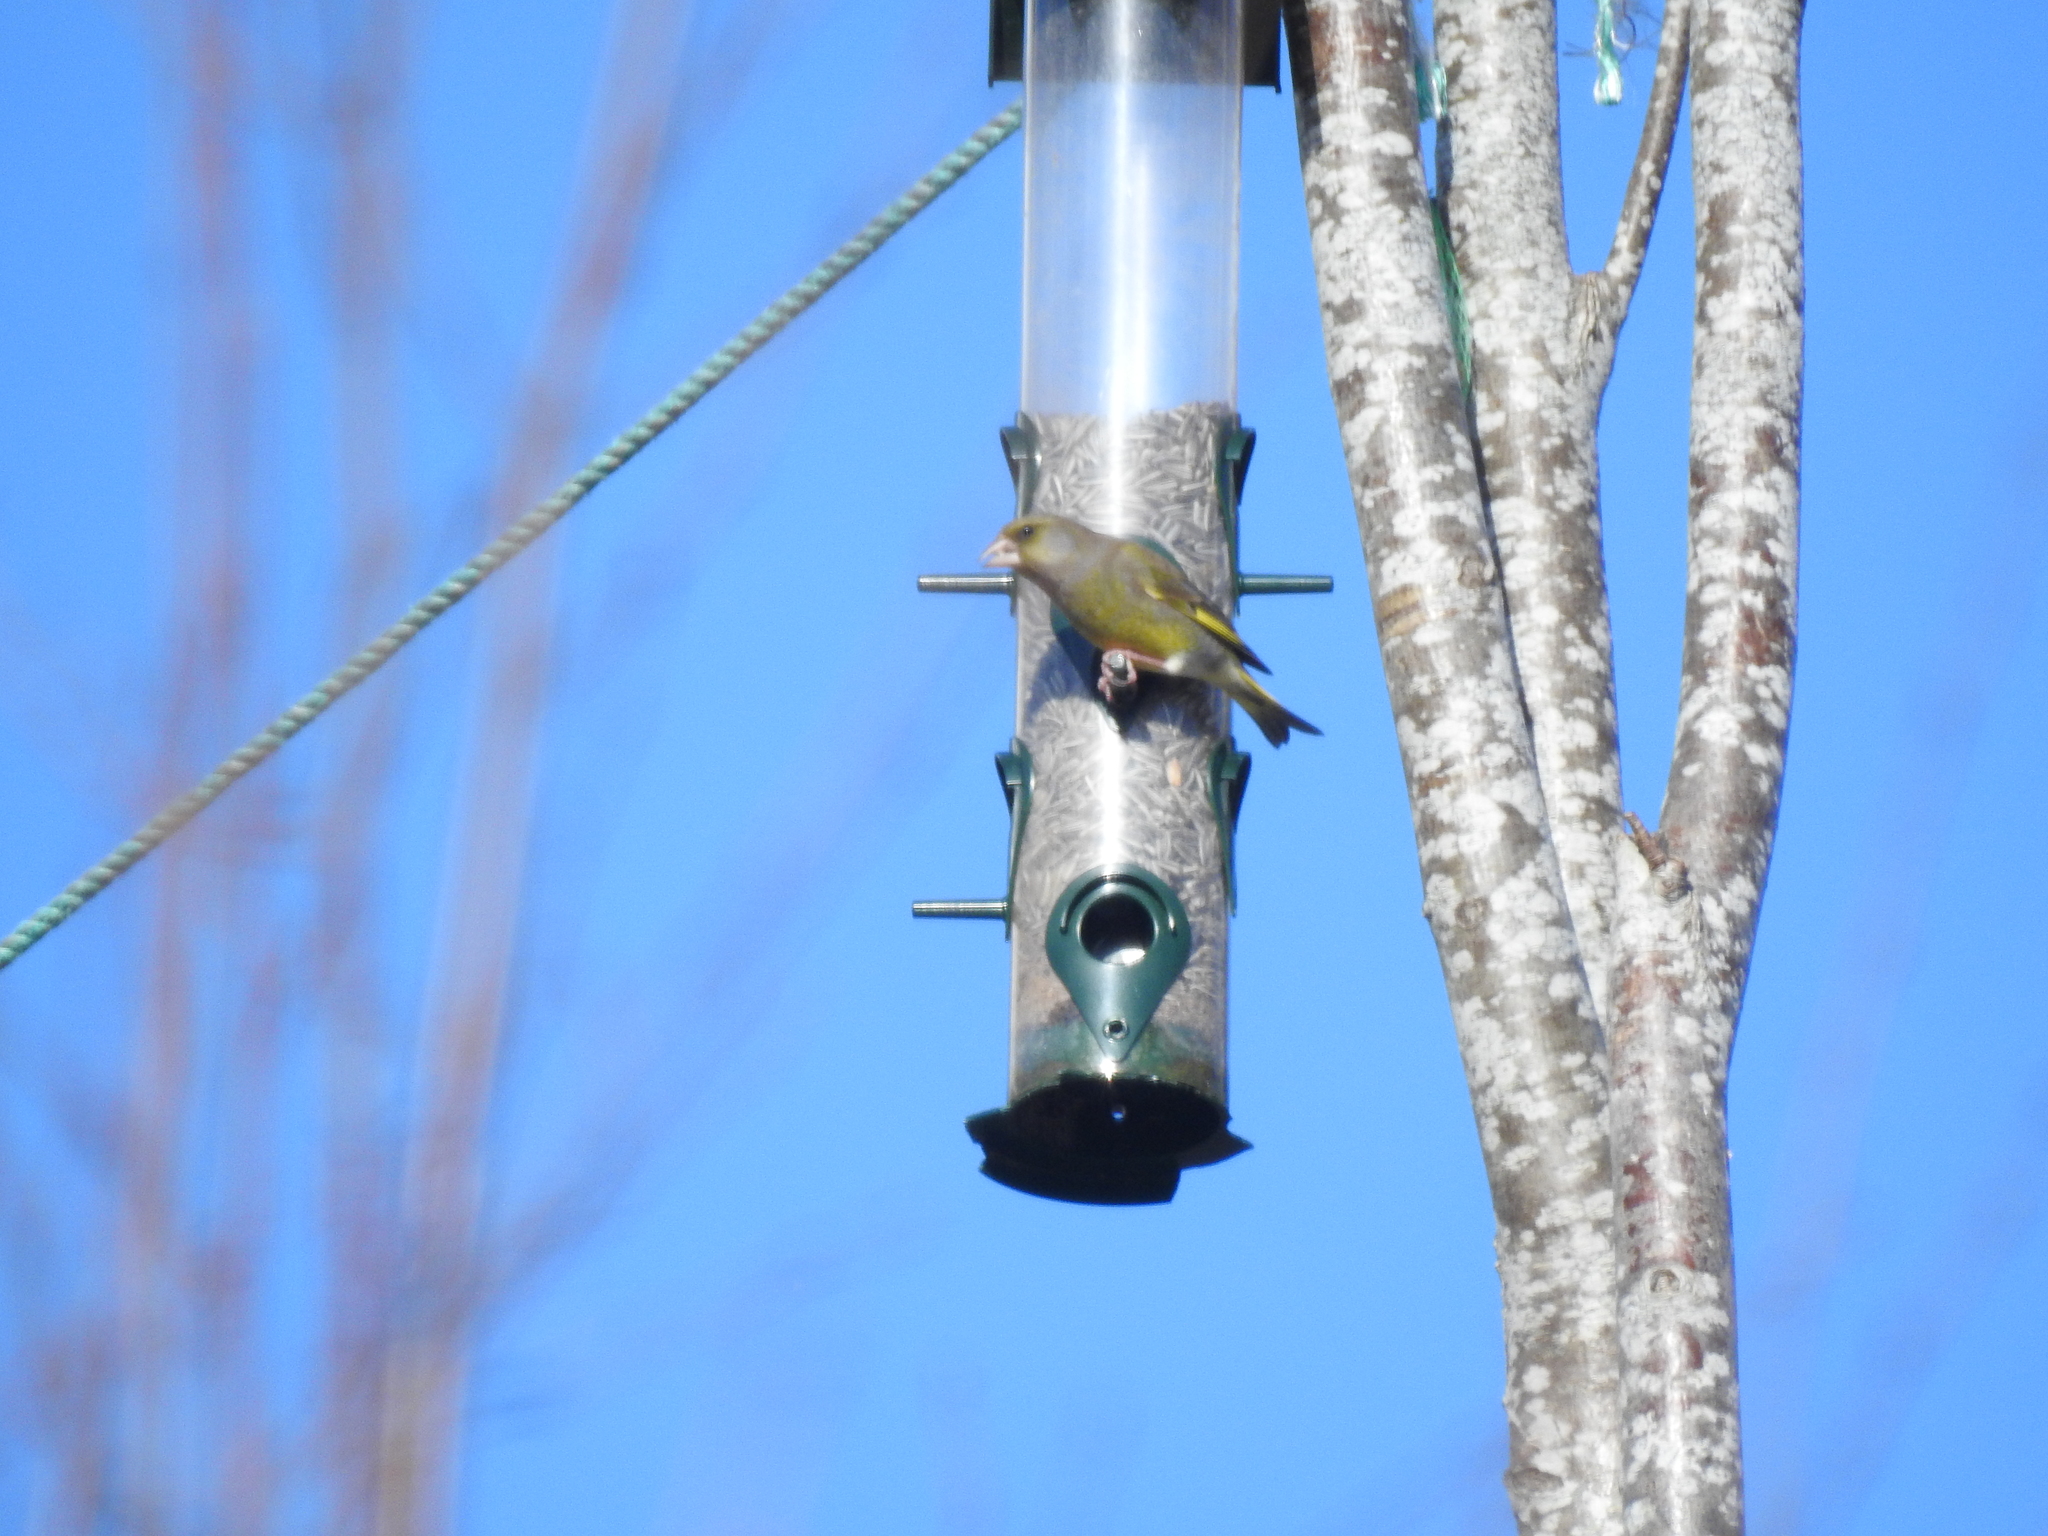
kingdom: Plantae
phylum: Tracheophyta
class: Liliopsida
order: Poales
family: Poaceae
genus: Chloris
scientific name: Chloris chloris
